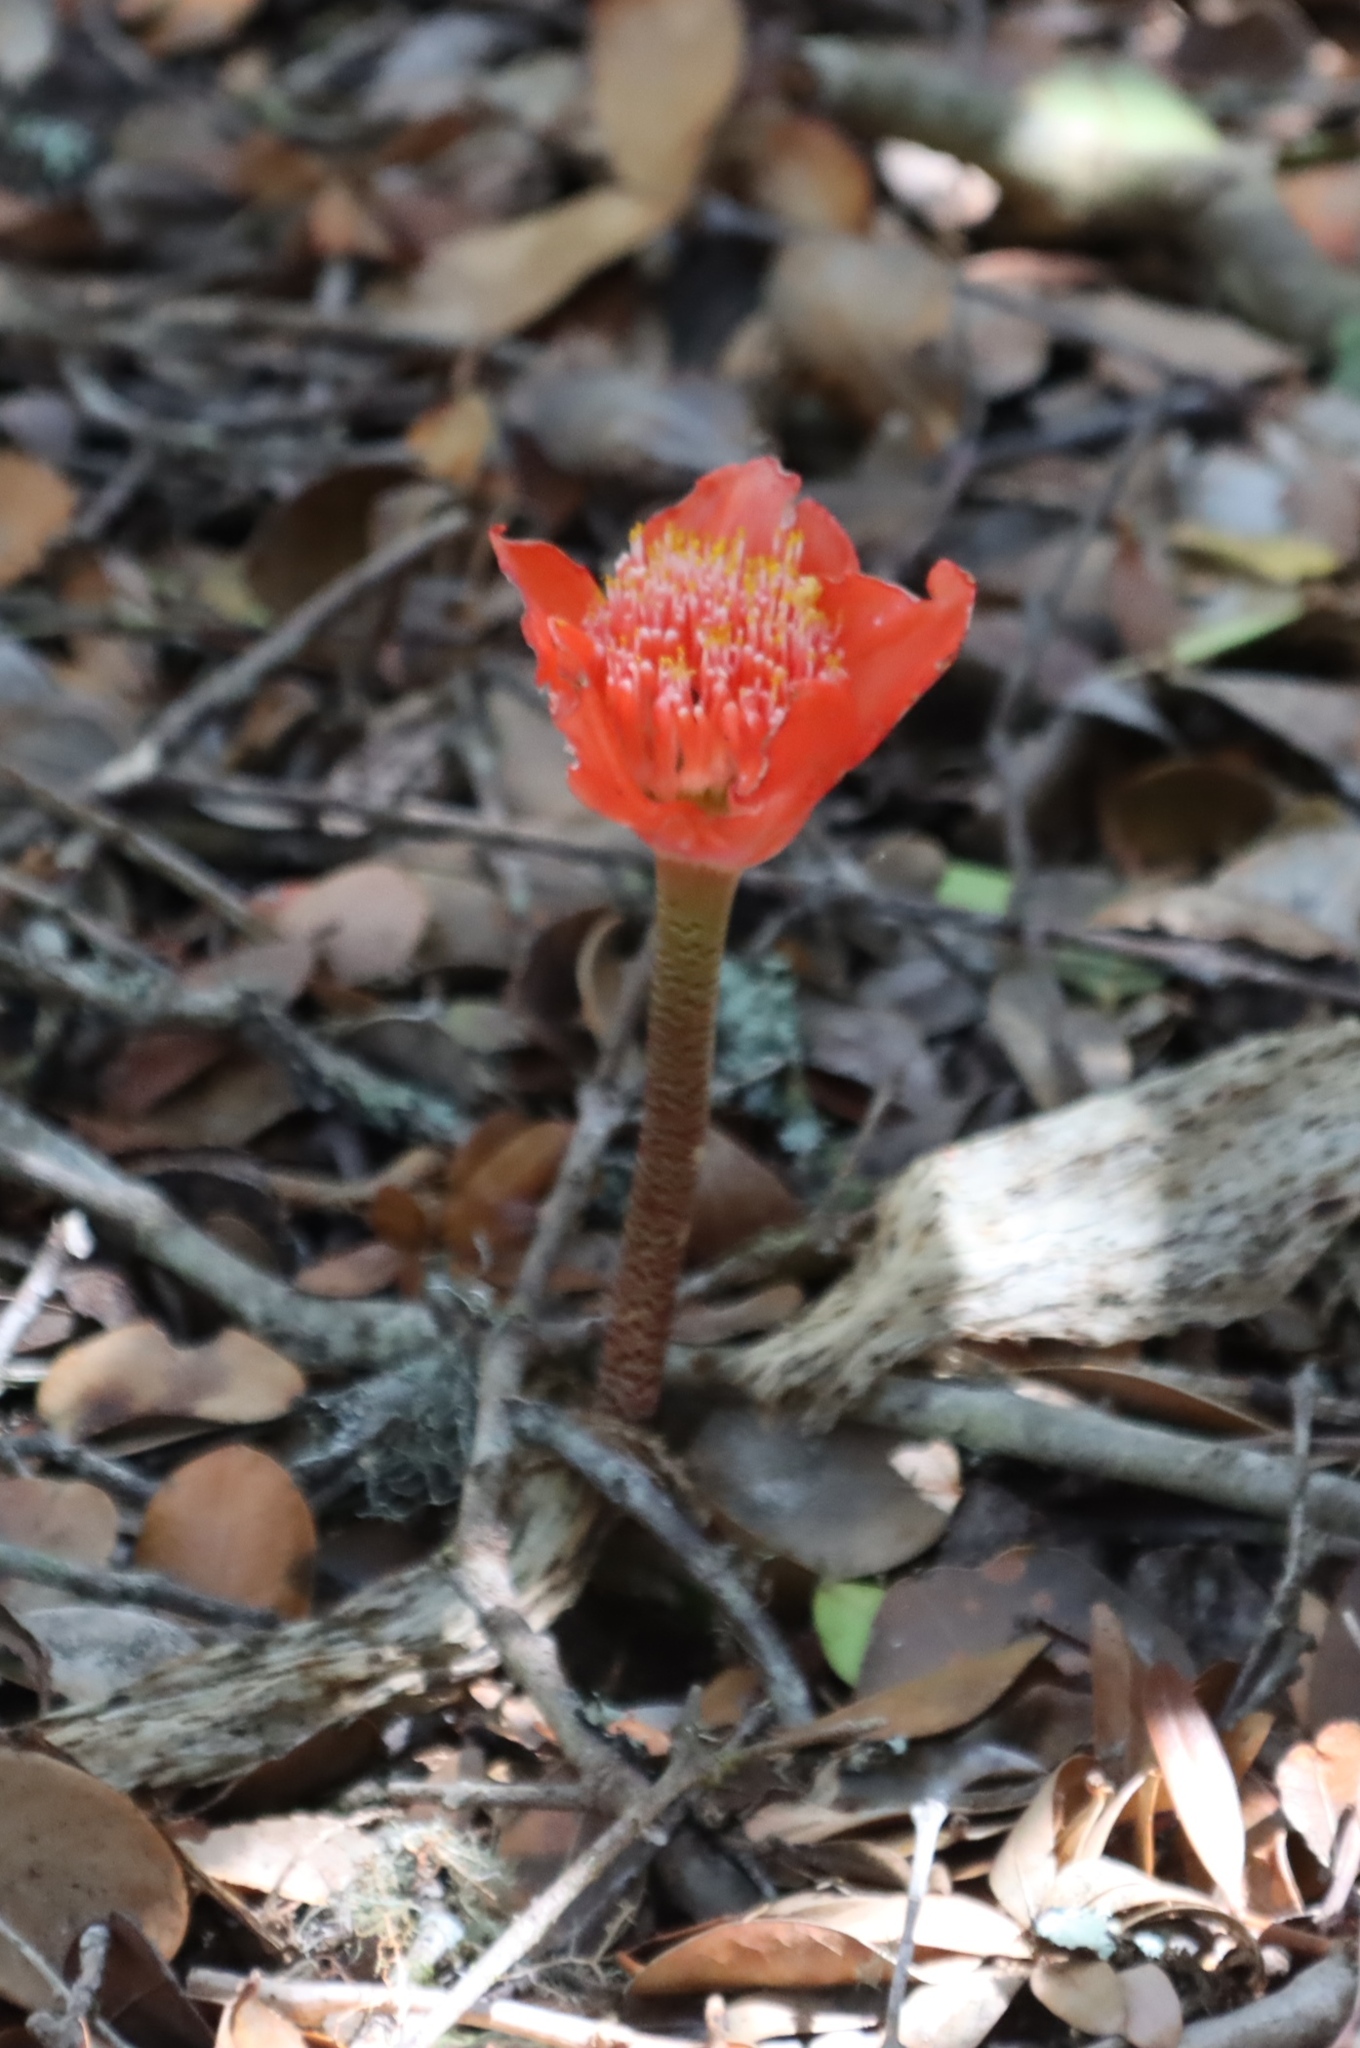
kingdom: Plantae
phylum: Tracheophyta
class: Liliopsida
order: Asparagales
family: Amaryllidaceae
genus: Haemanthus
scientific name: Haemanthus coccineus
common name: Cape-tulip
